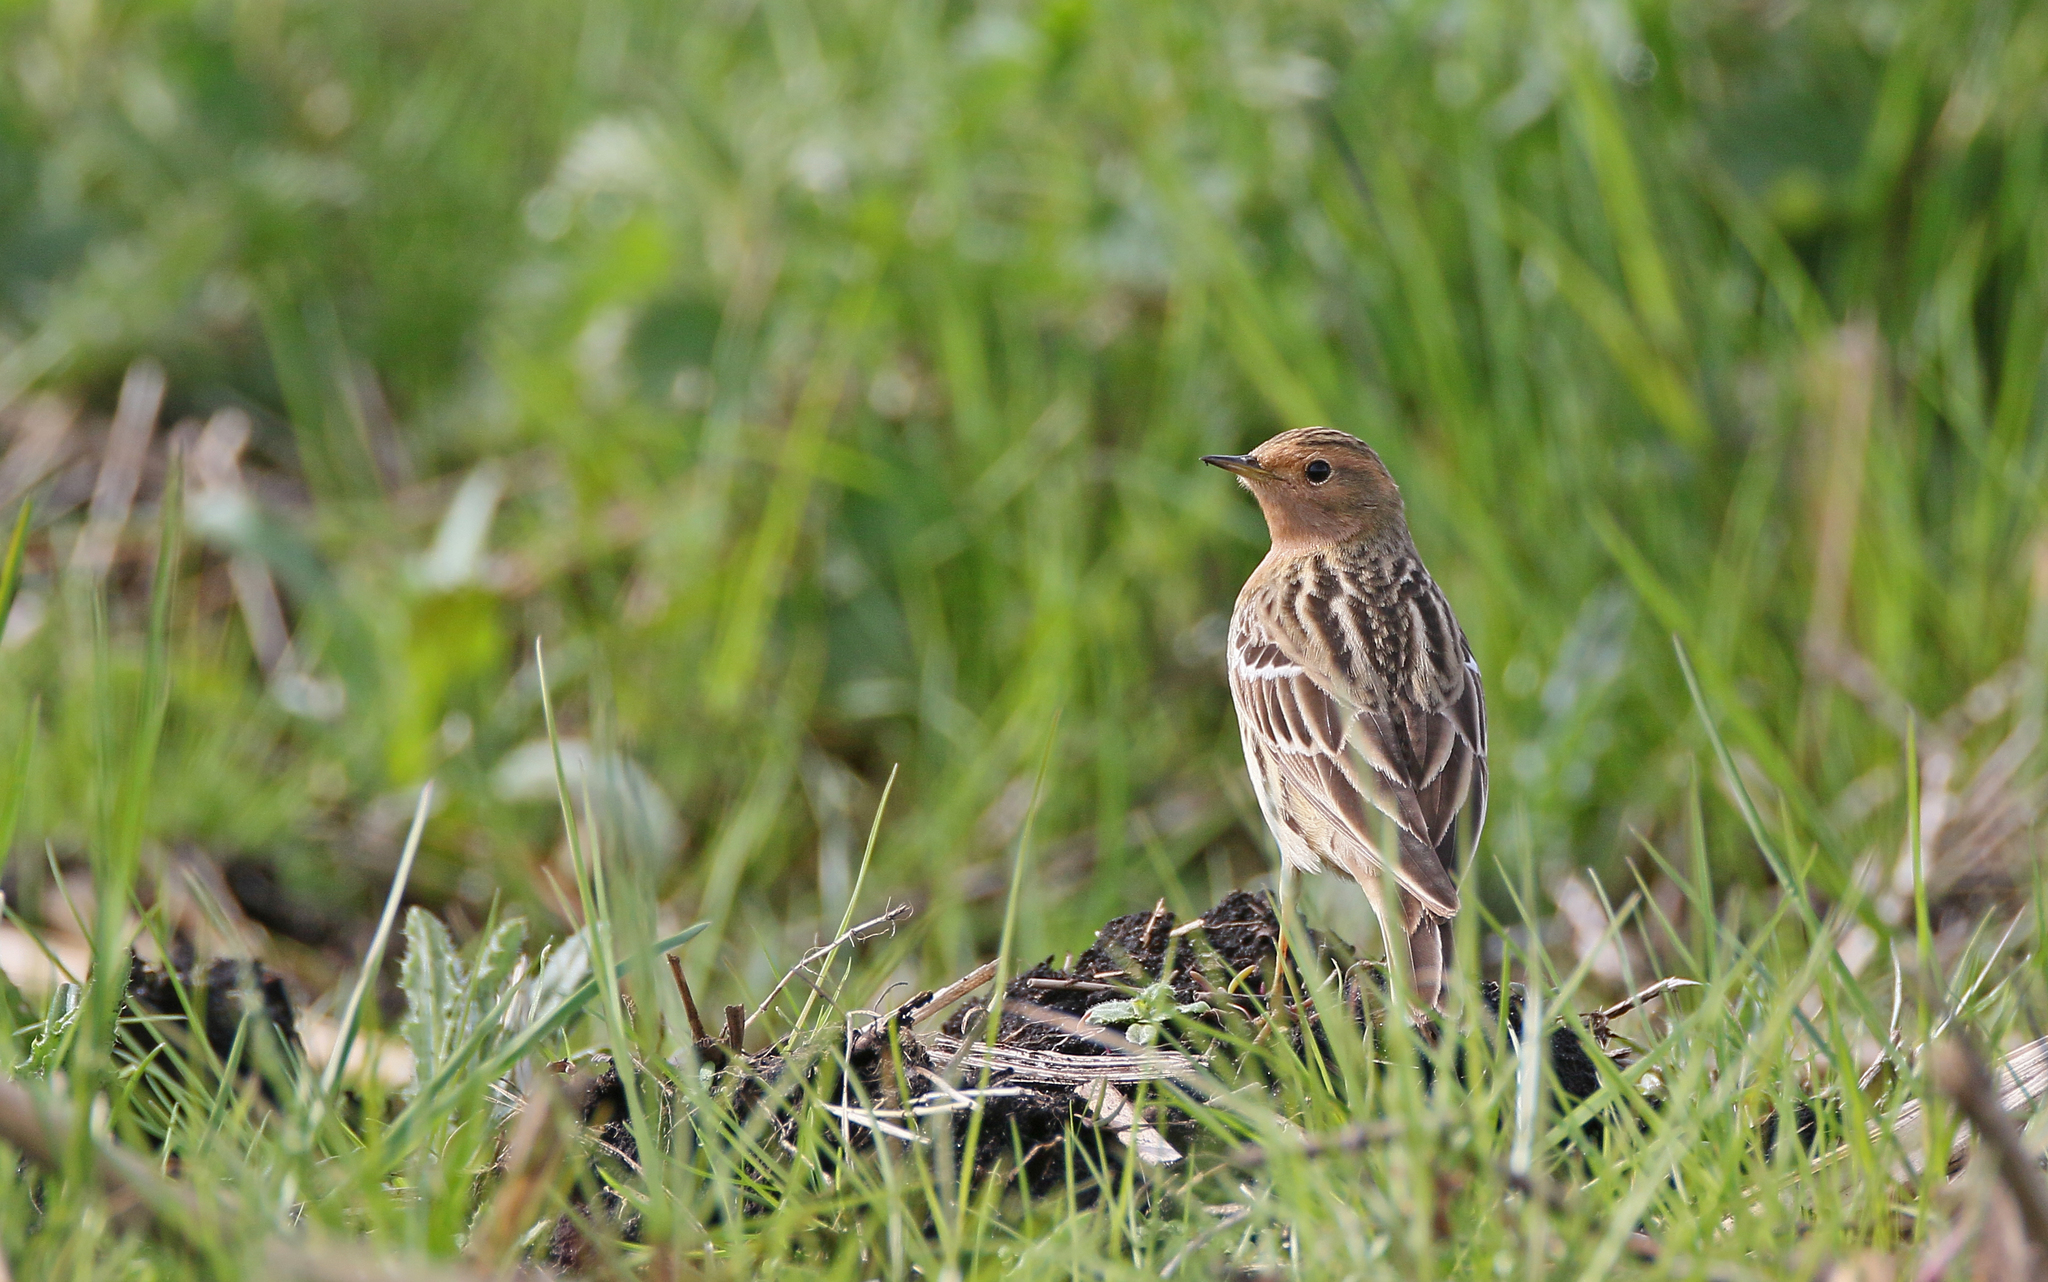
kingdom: Animalia
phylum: Chordata
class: Aves
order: Passeriformes
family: Motacillidae
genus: Anthus
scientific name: Anthus cervinus
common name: Red-throated pipit
